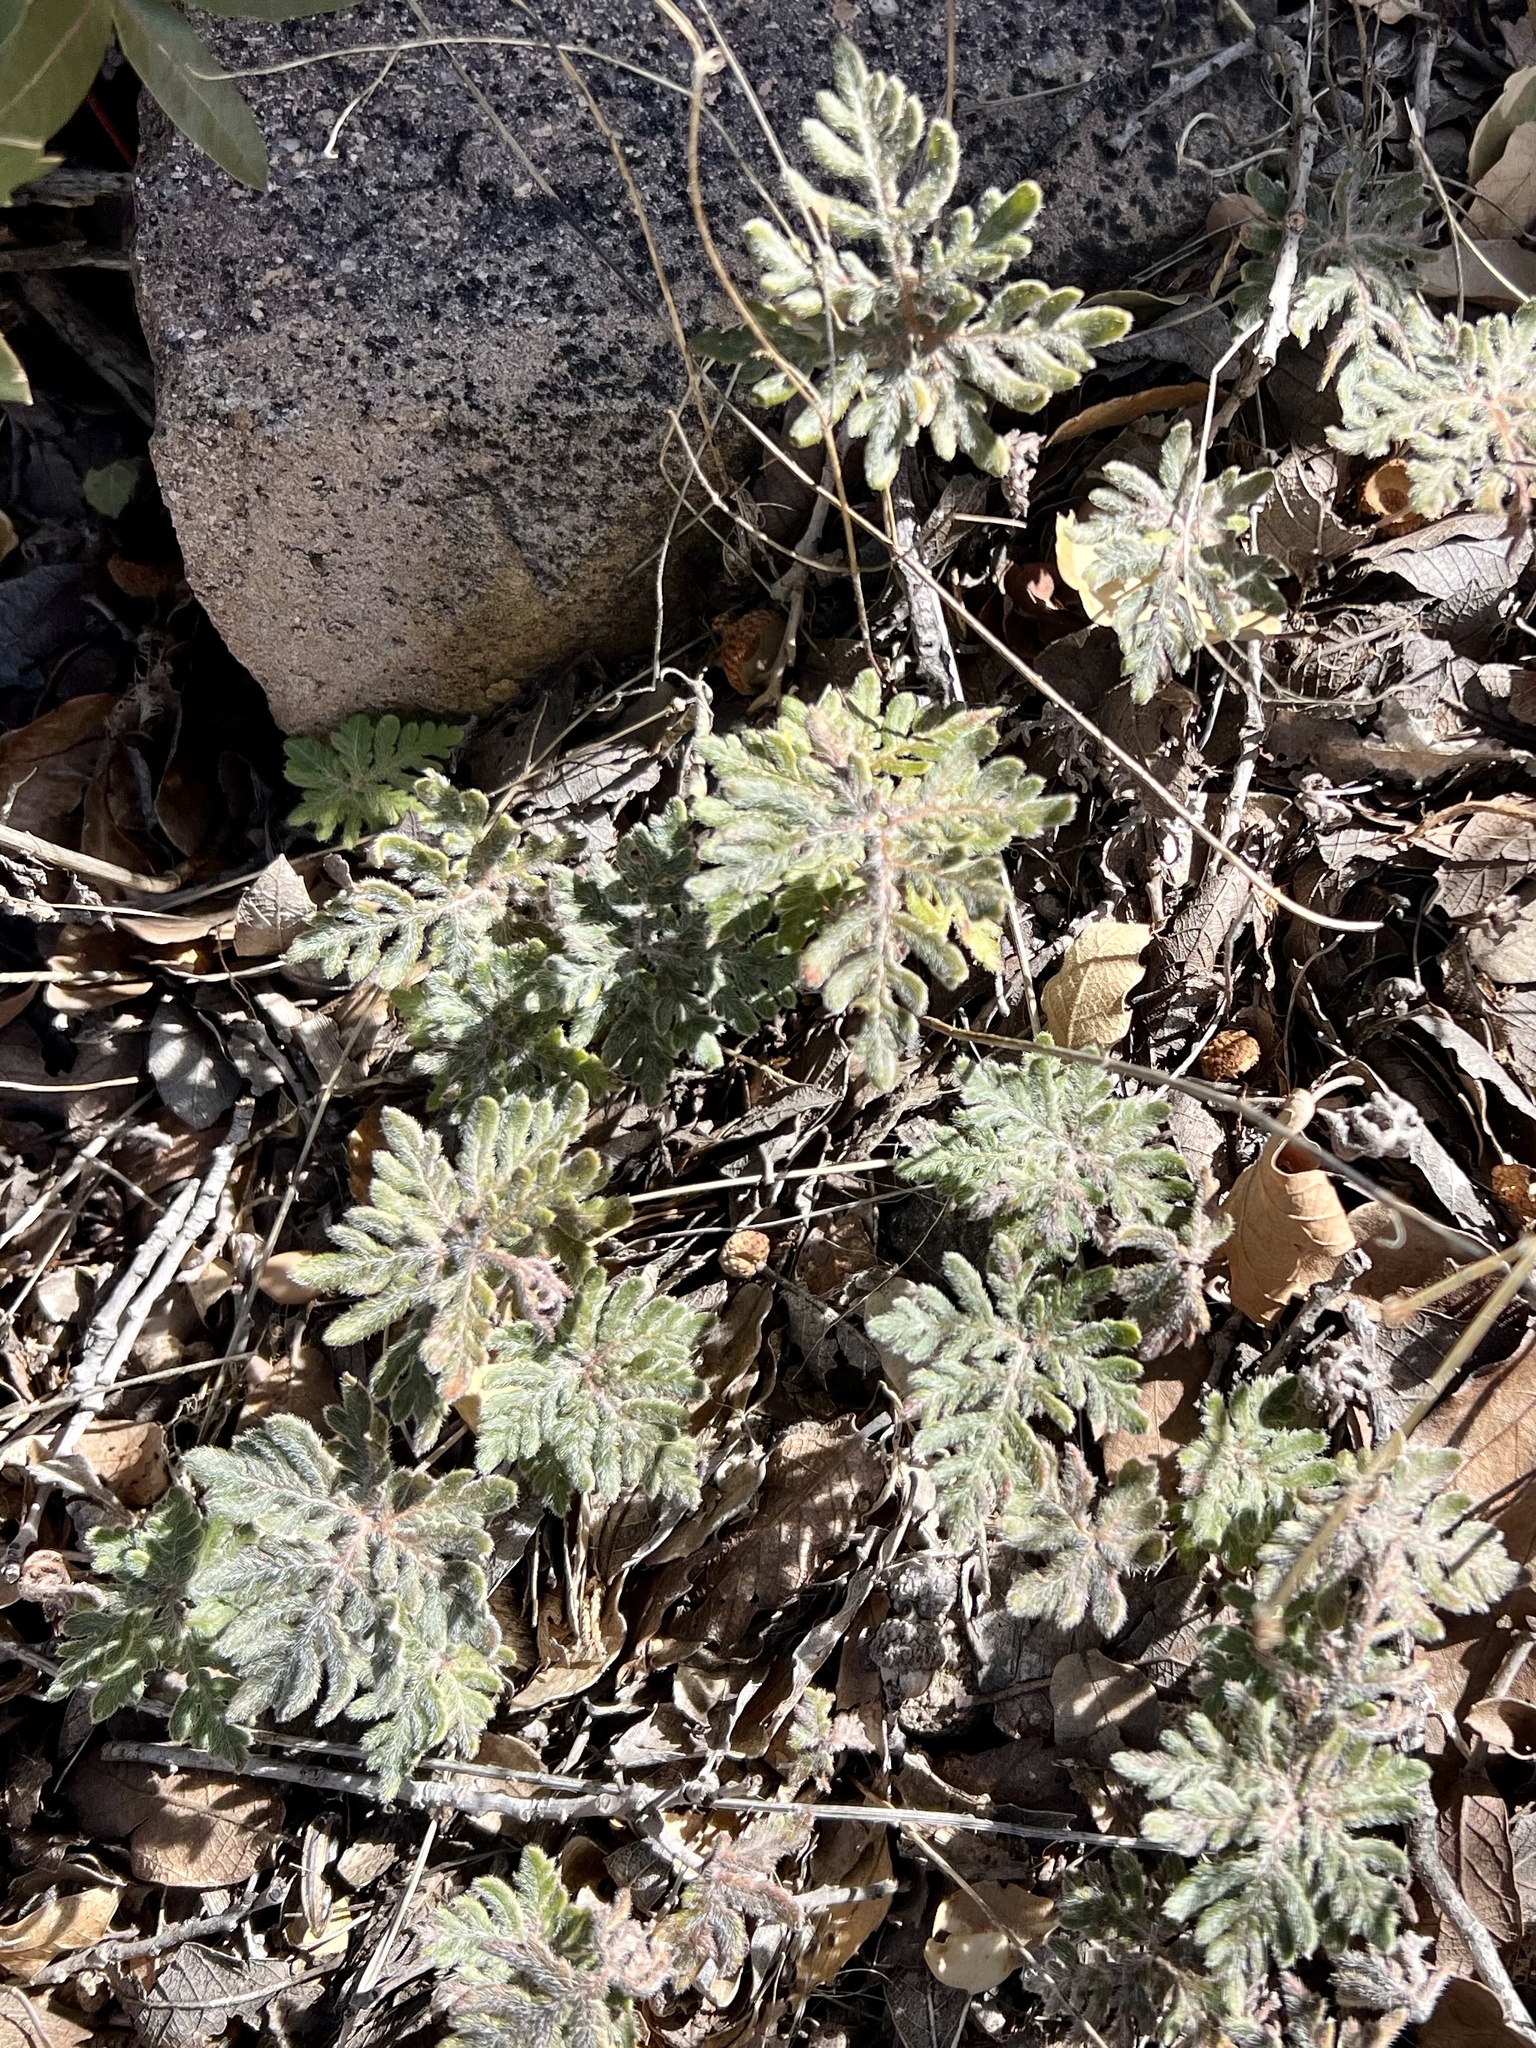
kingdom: Plantae
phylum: Tracheophyta
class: Polypodiopsida
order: Polypodiales
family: Pteridaceae
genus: Bommeria
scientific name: Bommeria hispida
